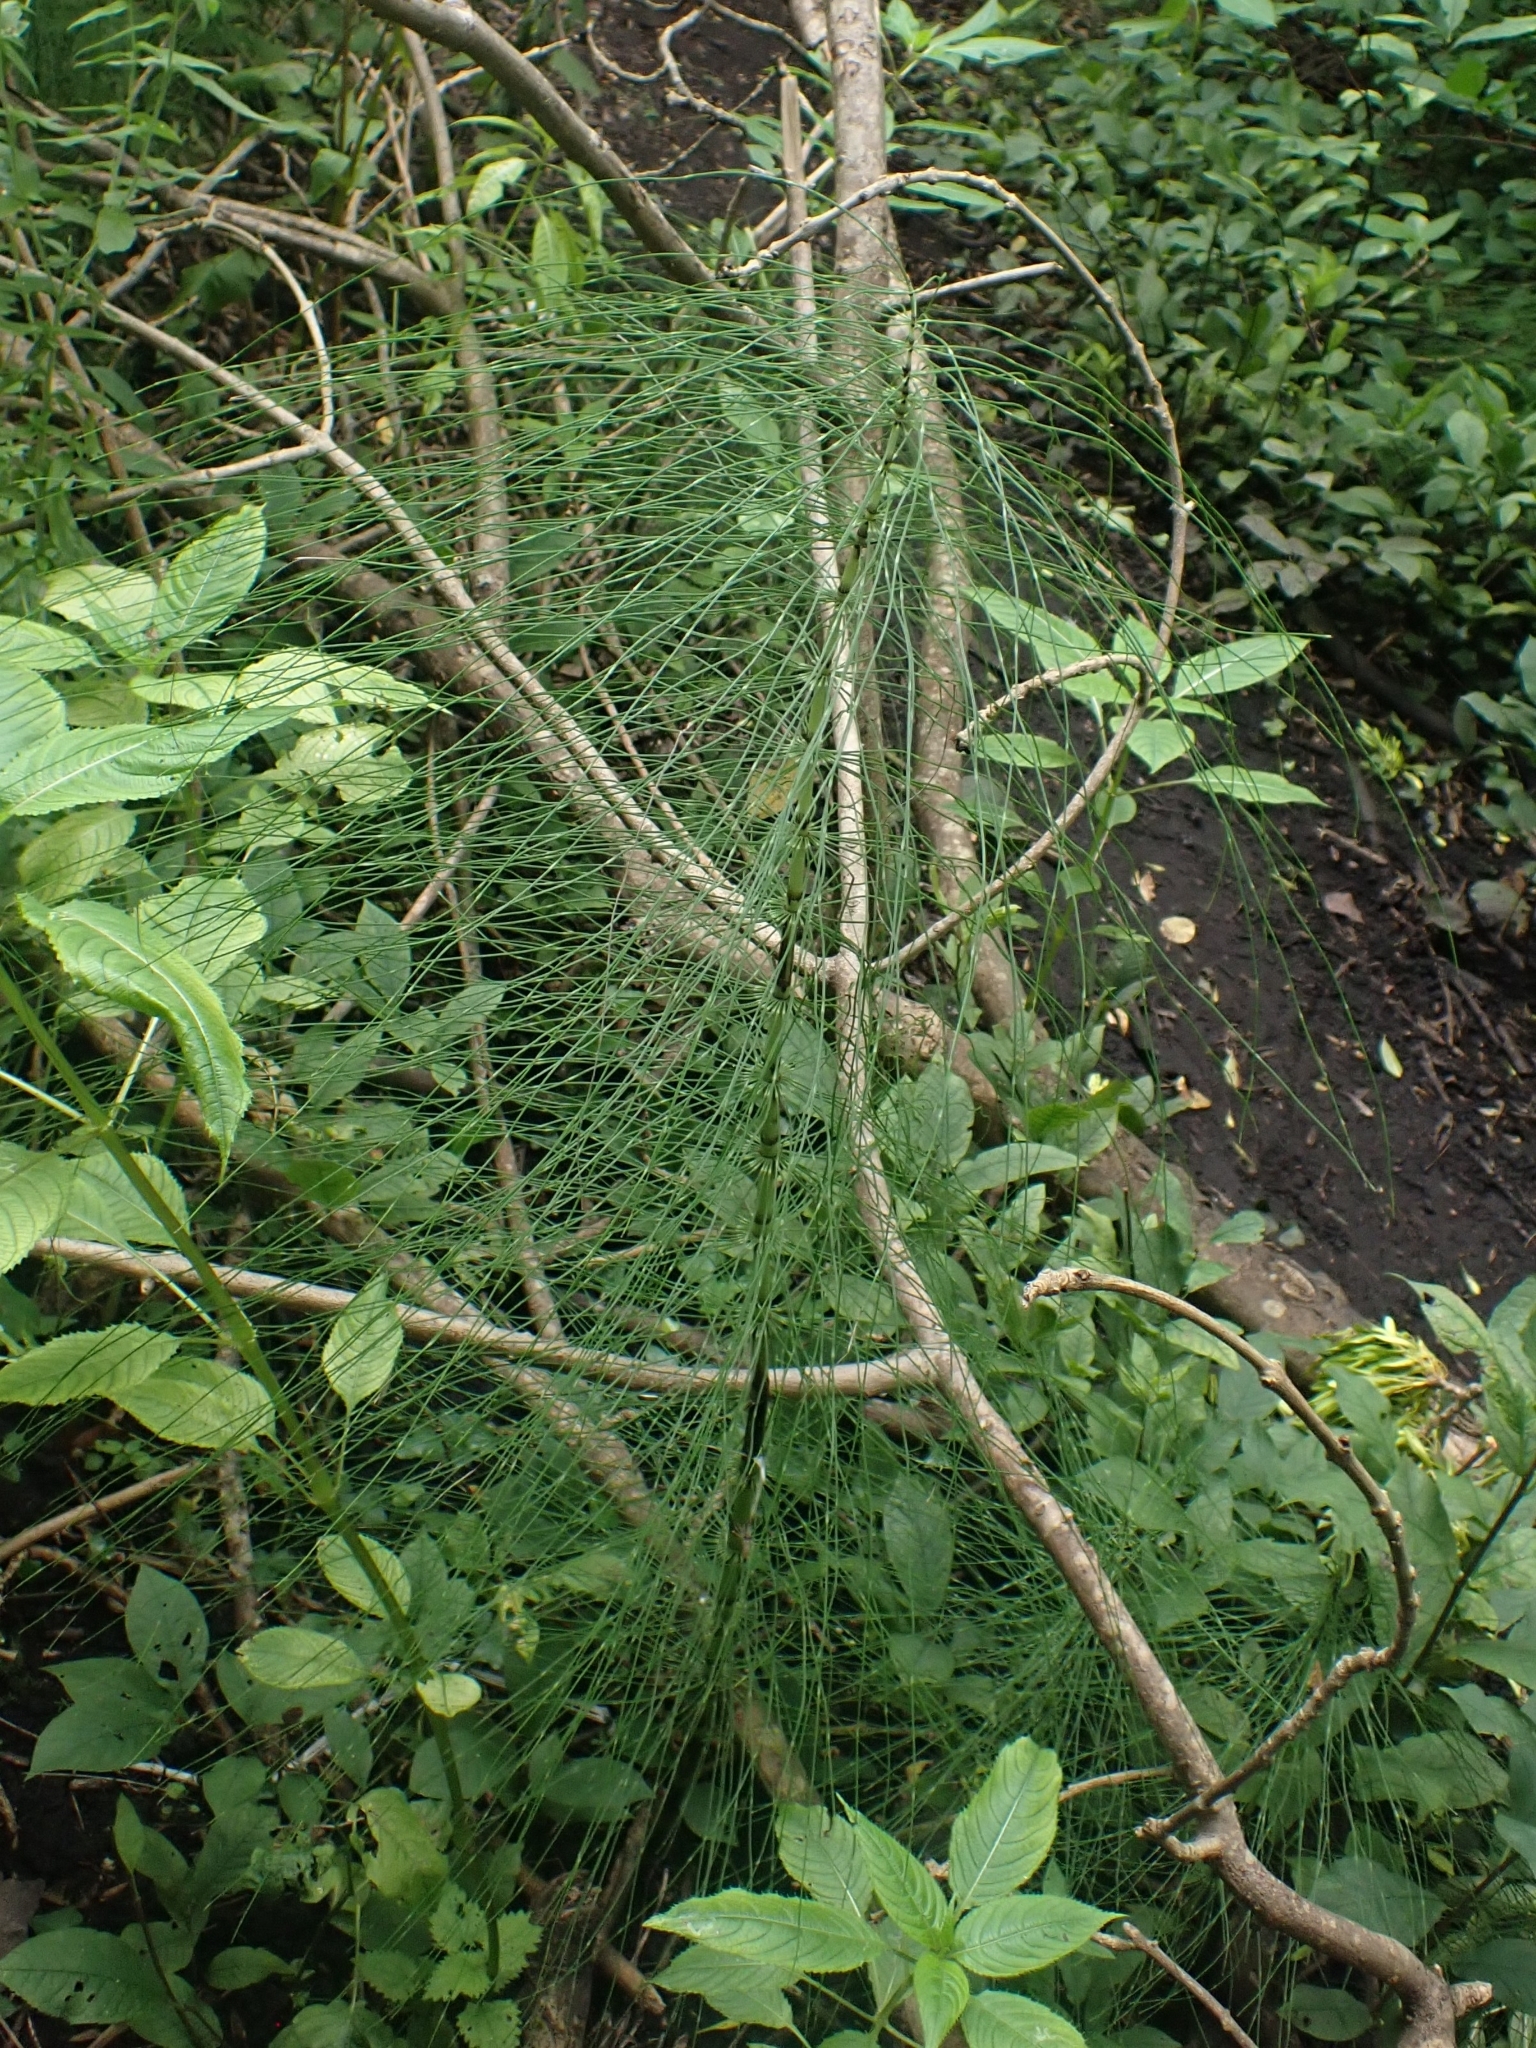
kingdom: Plantae
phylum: Tracheophyta
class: Polypodiopsida
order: Equisetales
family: Equisetaceae
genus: Equisetum
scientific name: Equisetum telmateia
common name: Great horsetail
